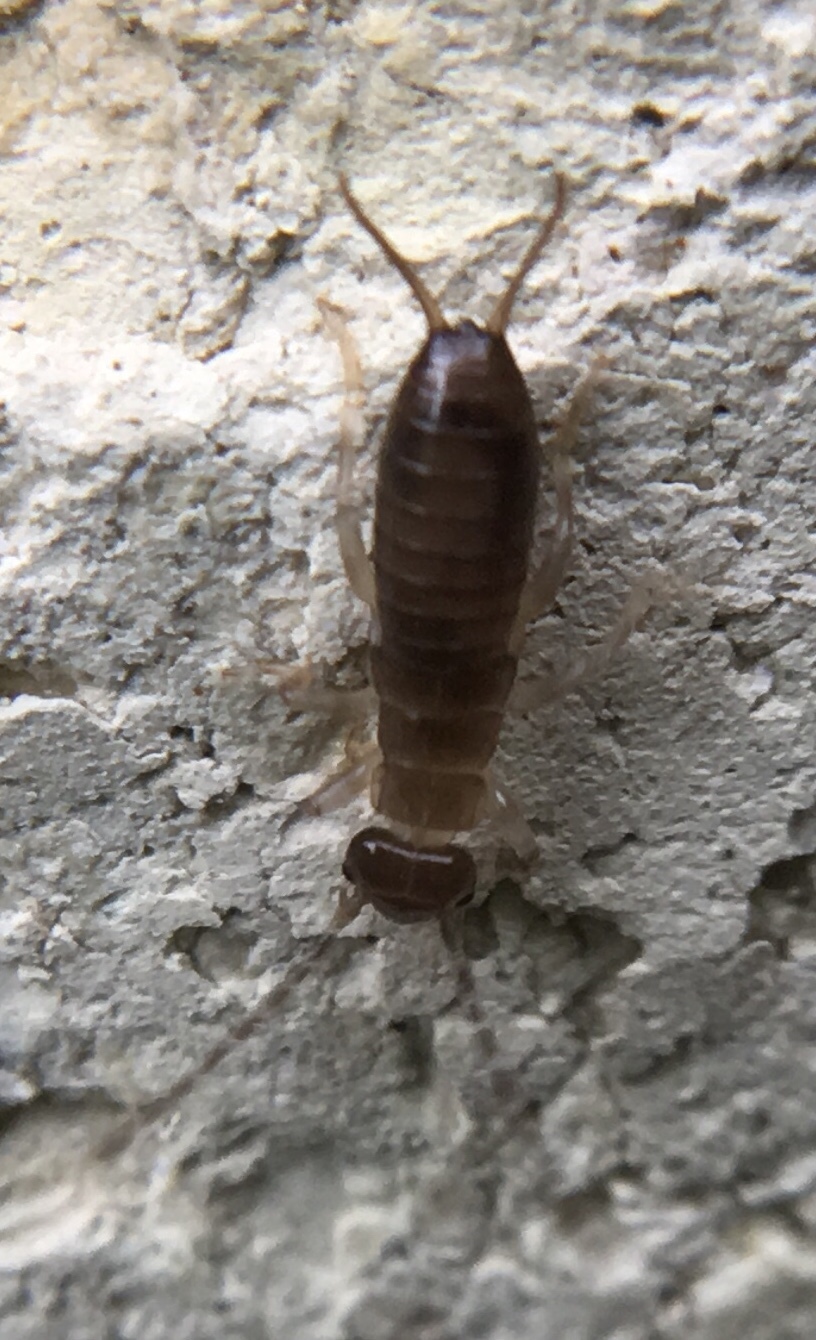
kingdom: Animalia
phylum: Arthropoda
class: Insecta
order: Dermaptera
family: Forficulidae
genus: Forficula
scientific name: Forficula
